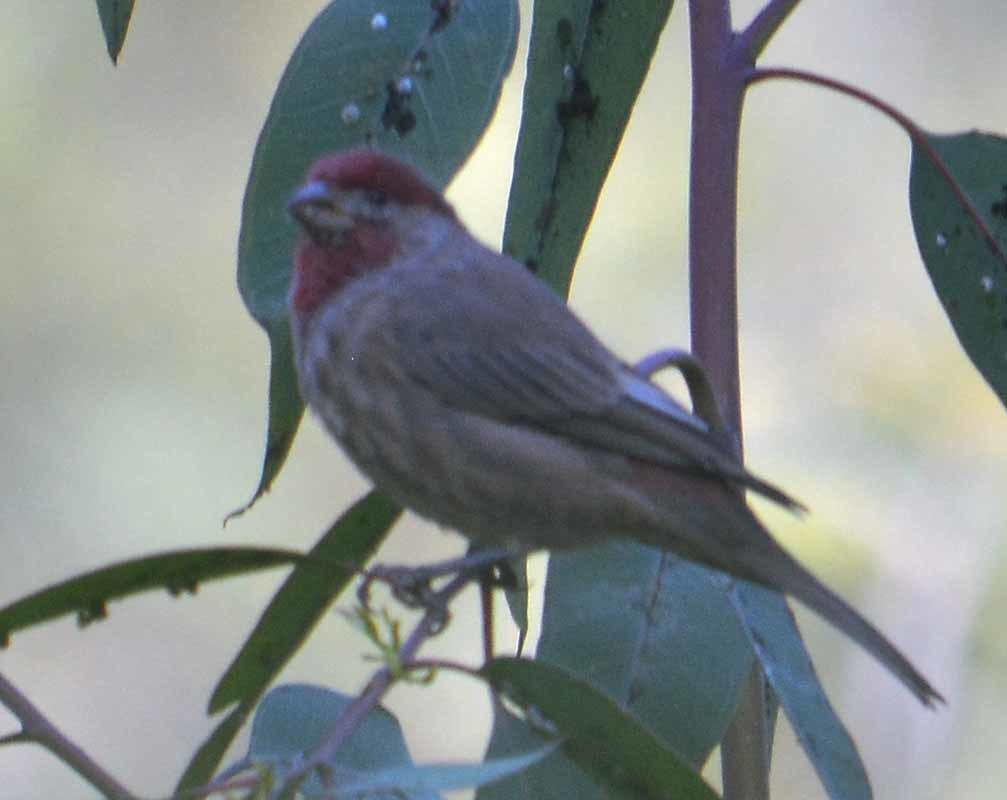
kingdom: Animalia
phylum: Chordata
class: Aves
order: Passeriformes
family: Fringillidae
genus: Haemorhous
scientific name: Haemorhous mexicanus
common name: House finch
